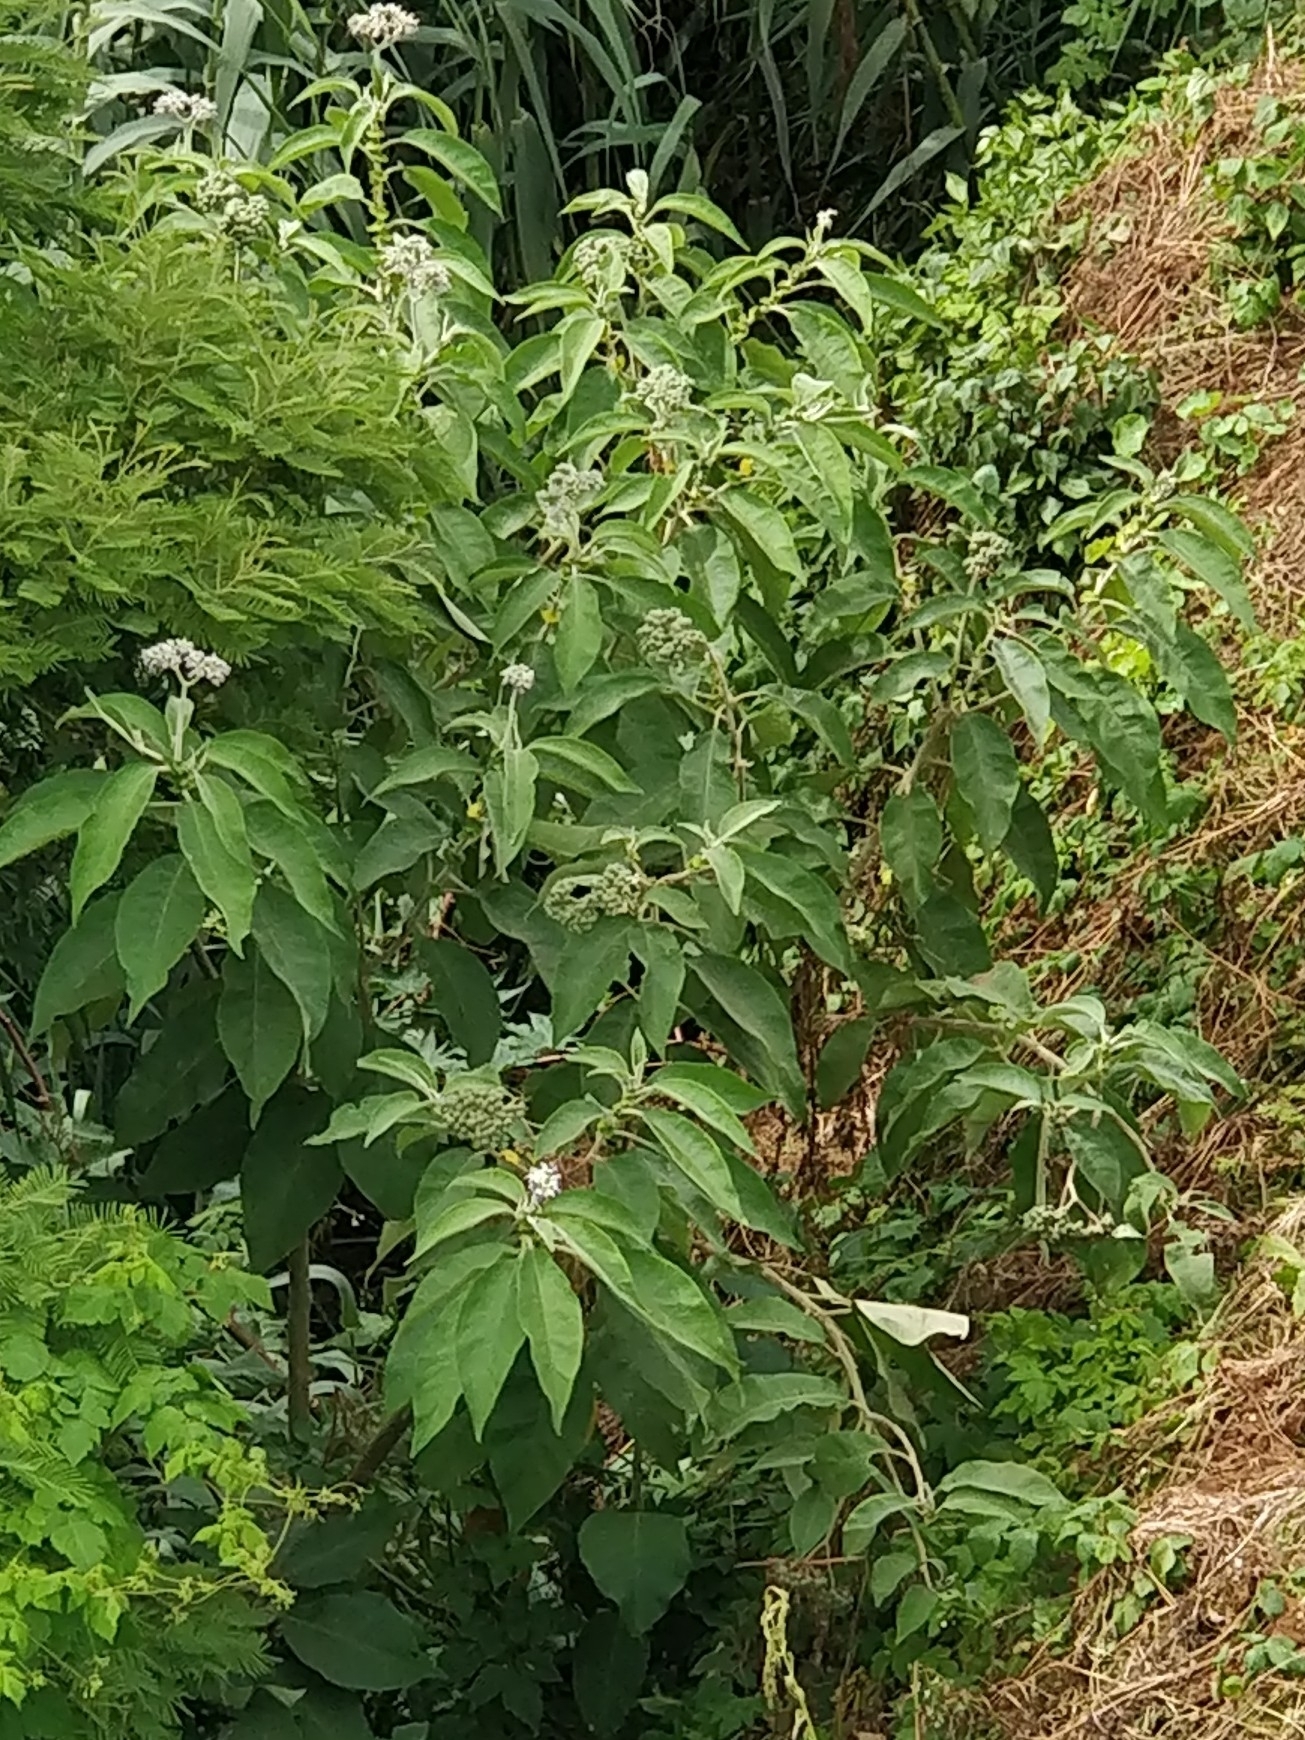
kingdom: Plantae
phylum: Tracheophyta
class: Magnoliopsida
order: Solanales
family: Solanaceae
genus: Solanum
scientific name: Solanum mauritianum
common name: Earleaf nightshade
